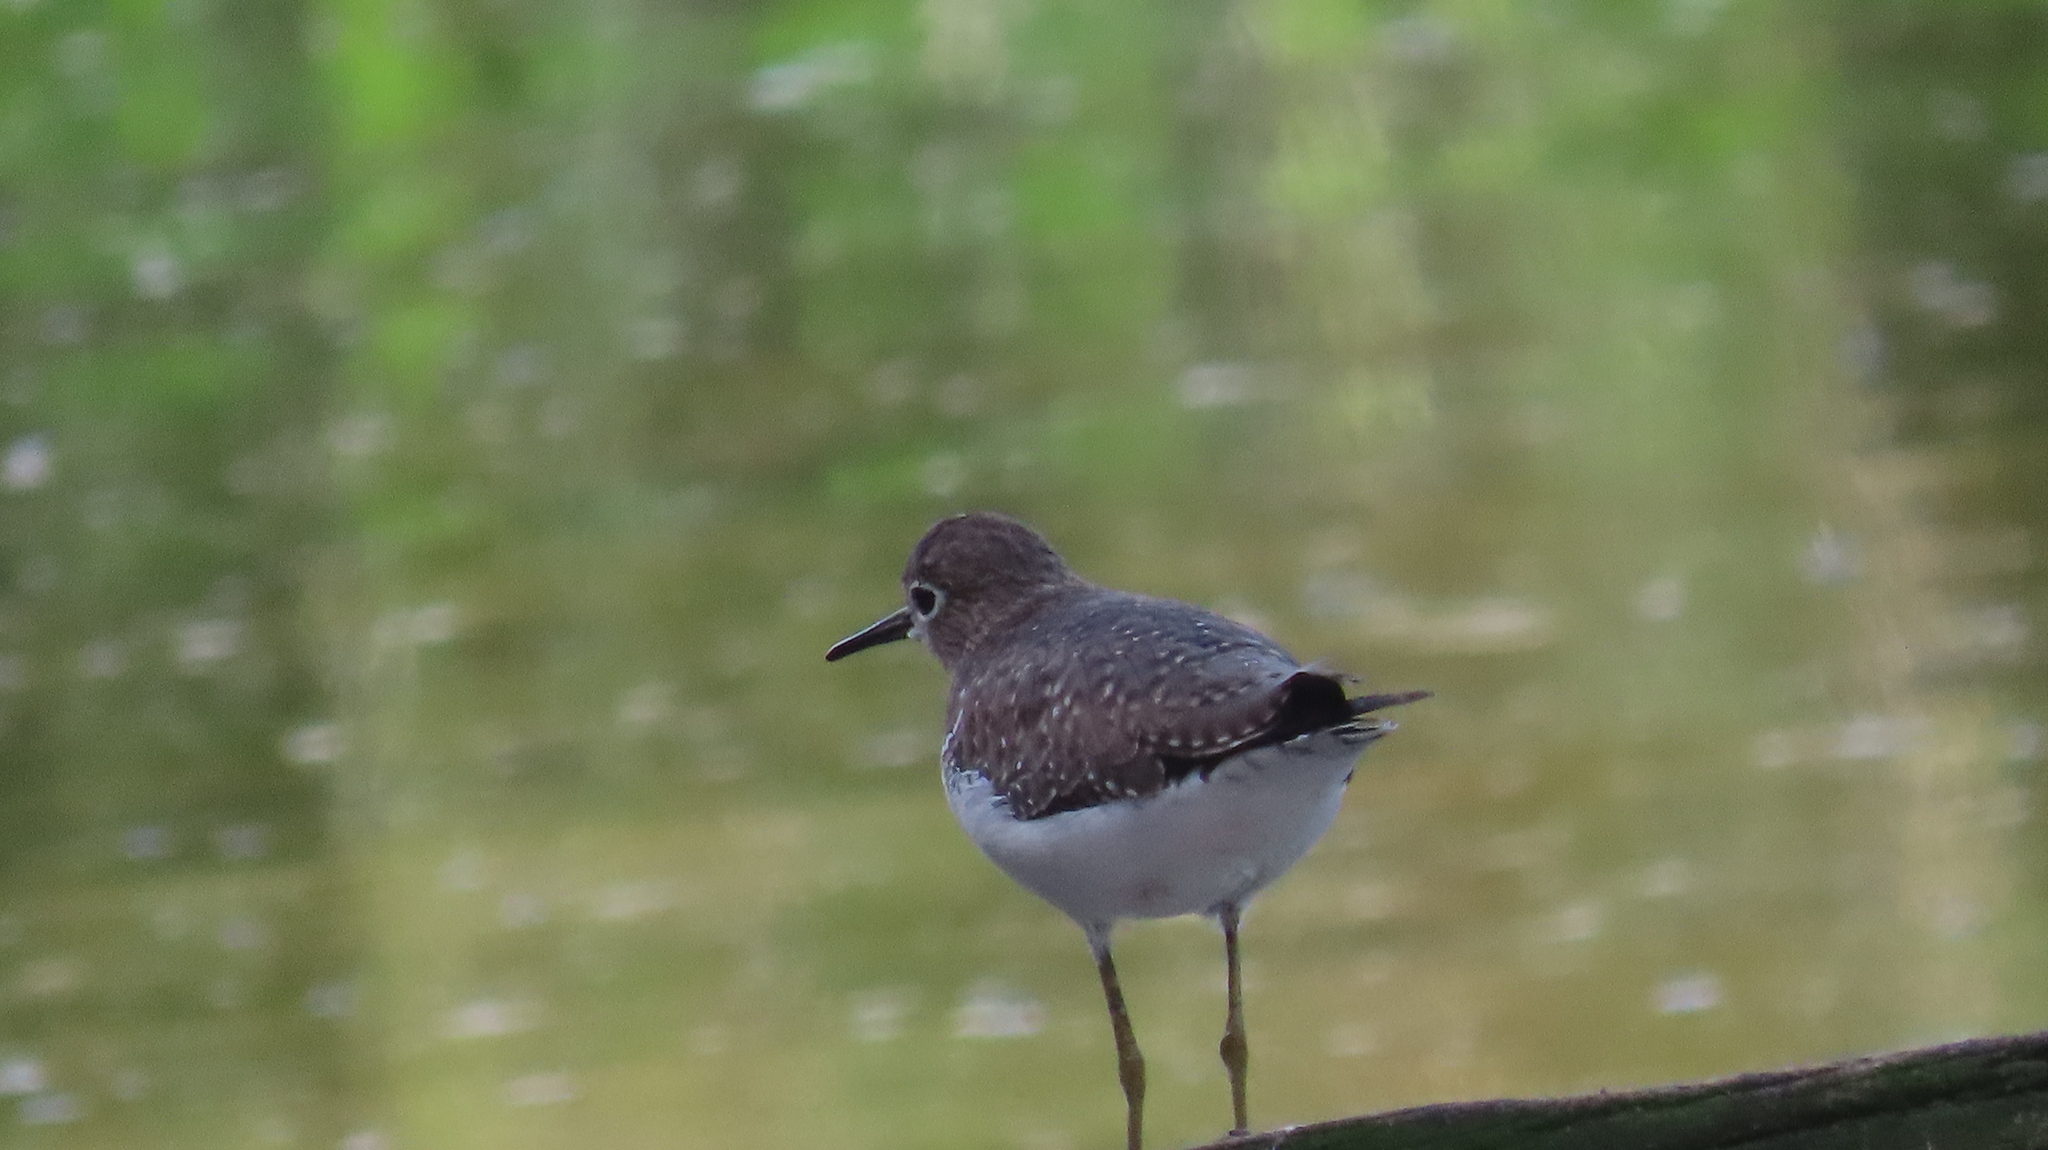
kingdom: Animalia
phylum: Chordata
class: Aves
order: Charadriiformes
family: Scolopacidae
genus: Tringa
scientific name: Tringa solitaria
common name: Solitary sandpiper
